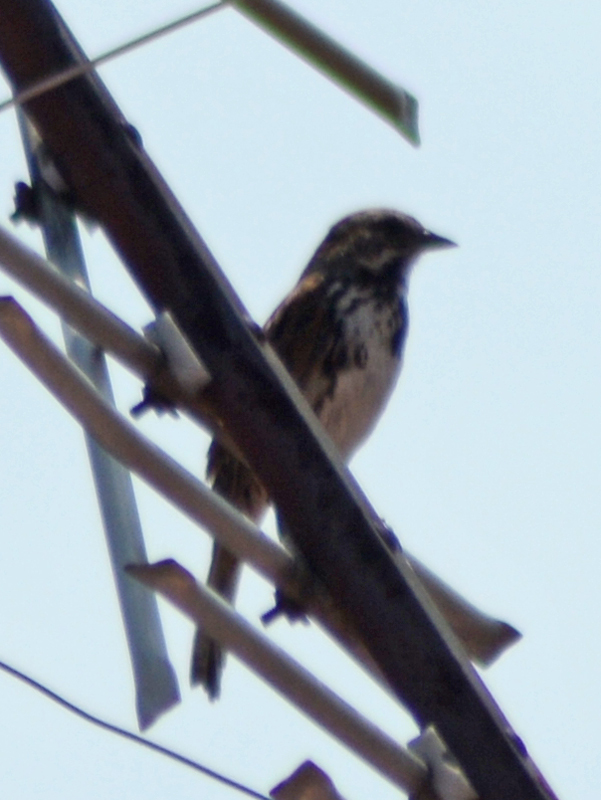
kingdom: Animalia
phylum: Chordata
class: Aves
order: Passeriformes
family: Passerellidae
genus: Melospiza
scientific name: Melospiza melodia
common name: Song sparrow
